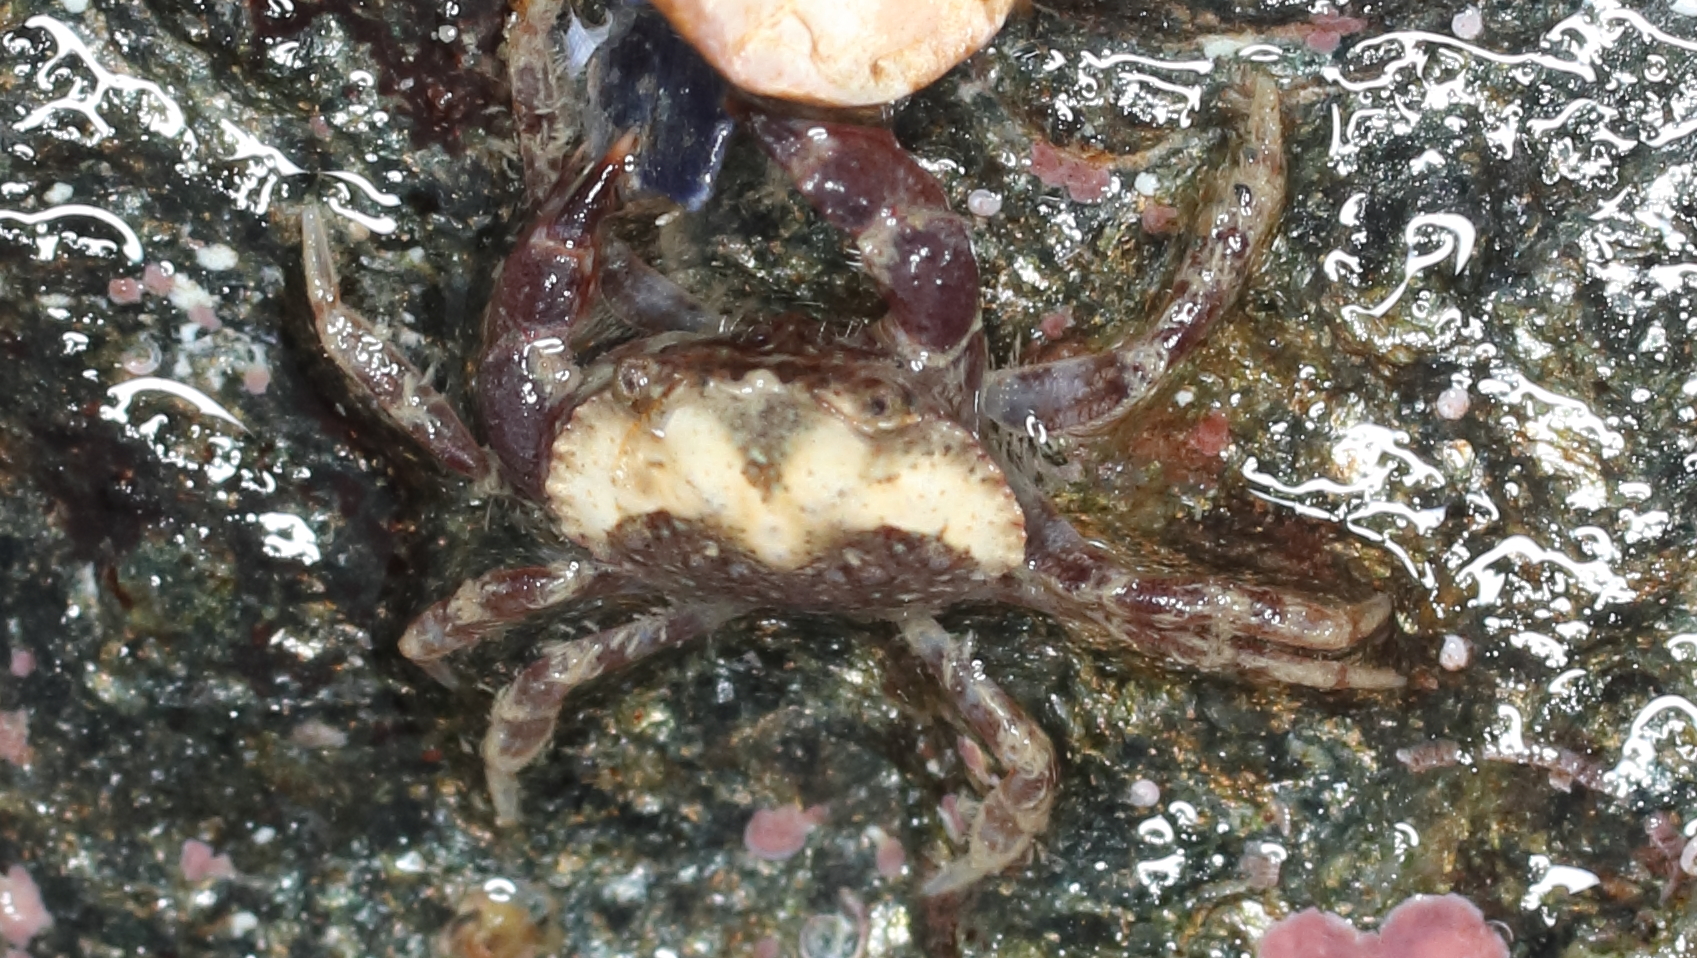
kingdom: Animalia
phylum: Arthropoda
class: Malacostraca
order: Decapoda
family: Cancridae
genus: Glebocarcinus
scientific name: Glebocarcinus oregonensis
